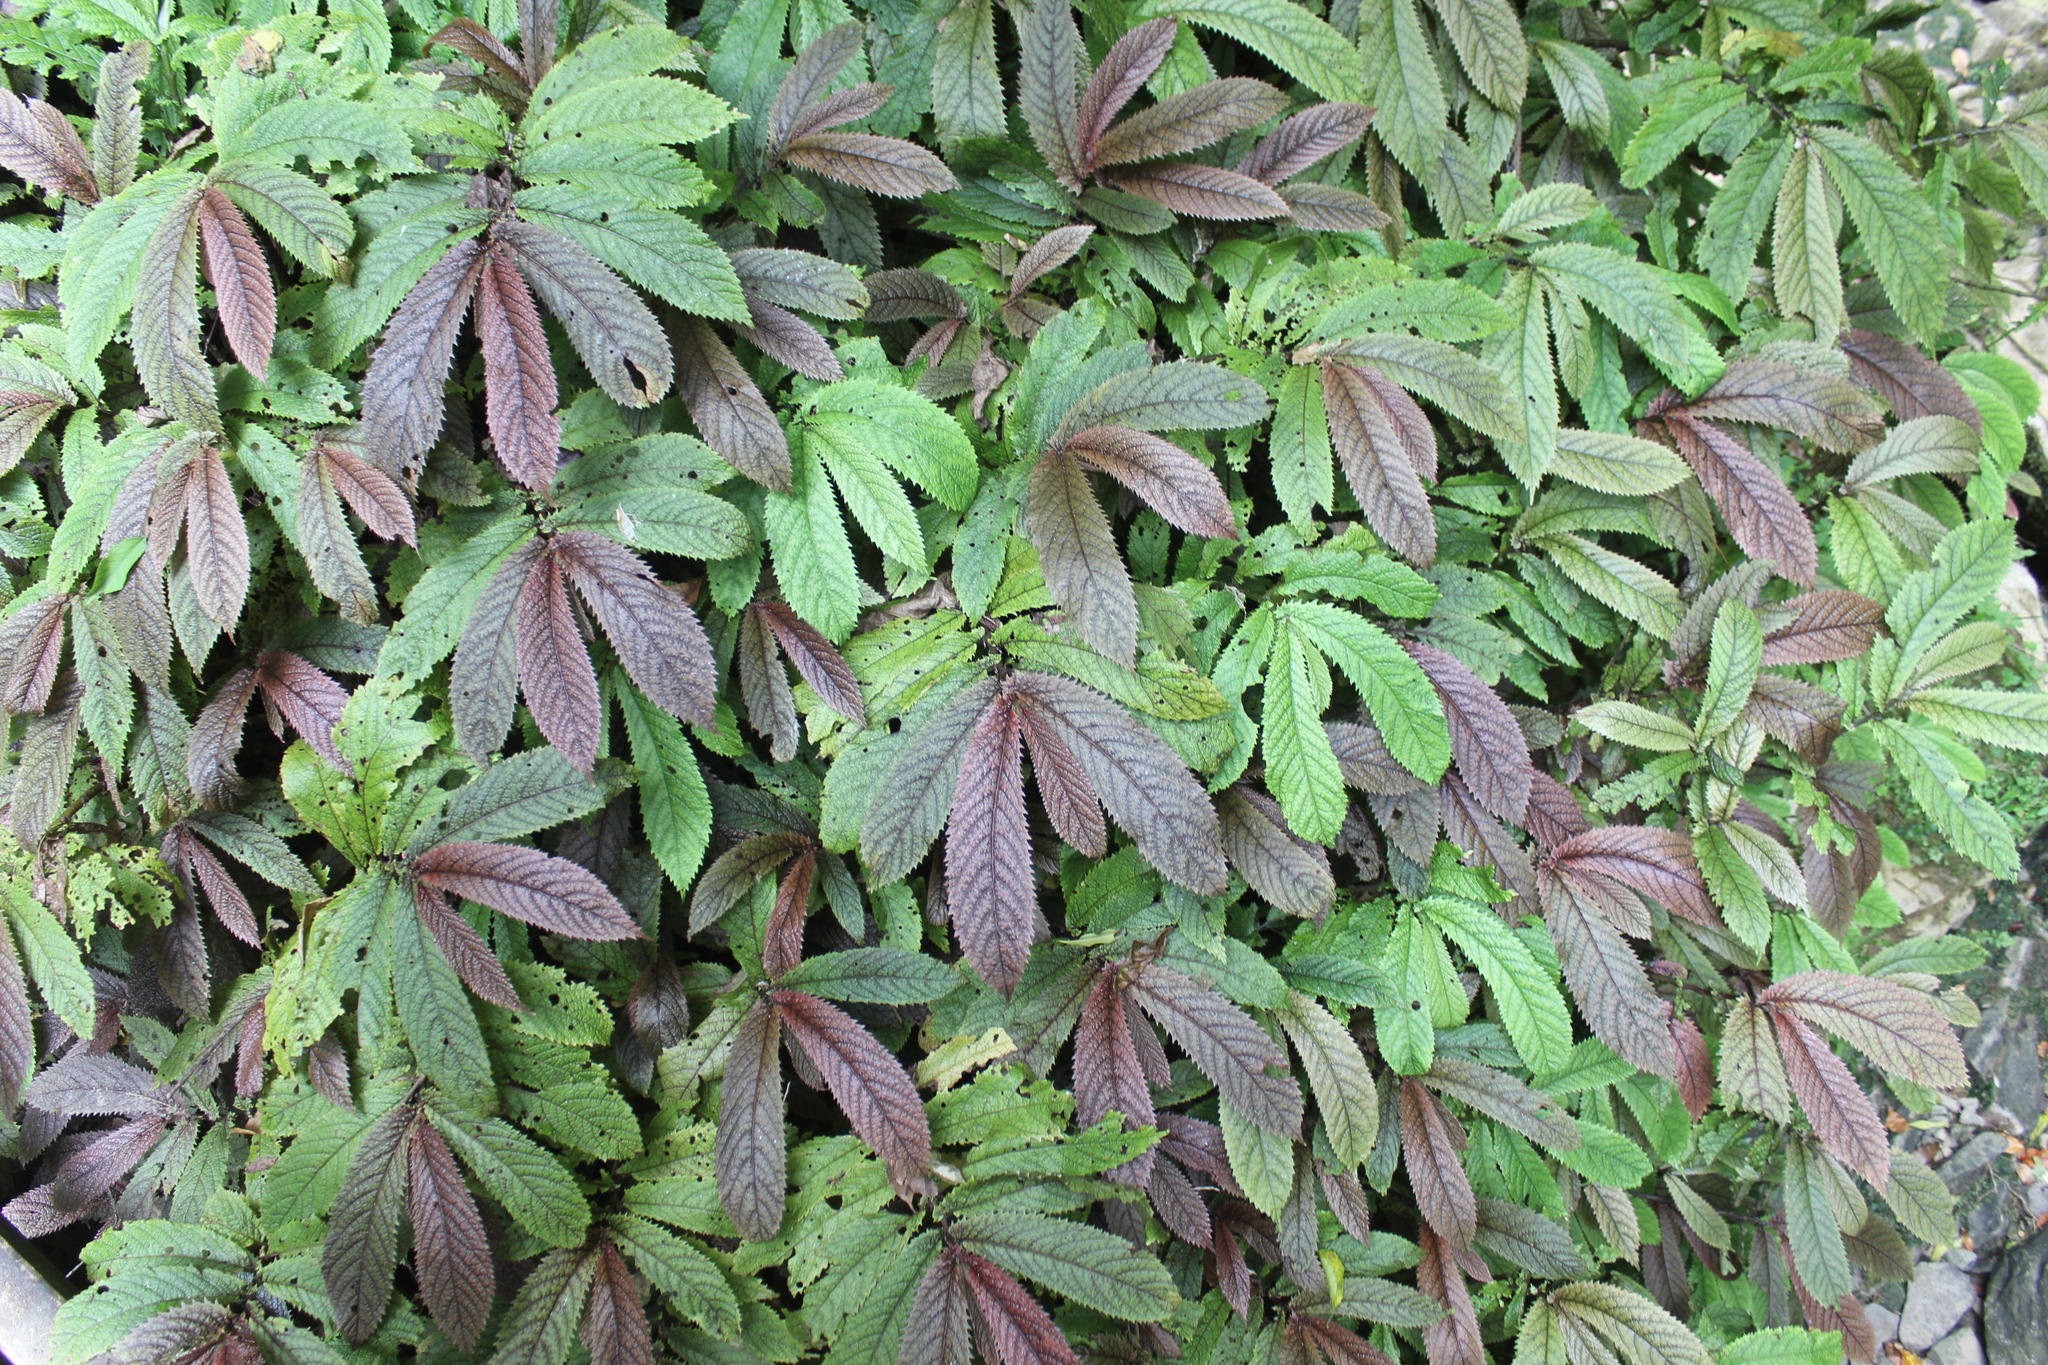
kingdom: Plantae
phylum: Tracheophyta
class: Magnoliopsida
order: Rosales
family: Urticaceae
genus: Elatostema
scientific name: Elatostema rugosum
